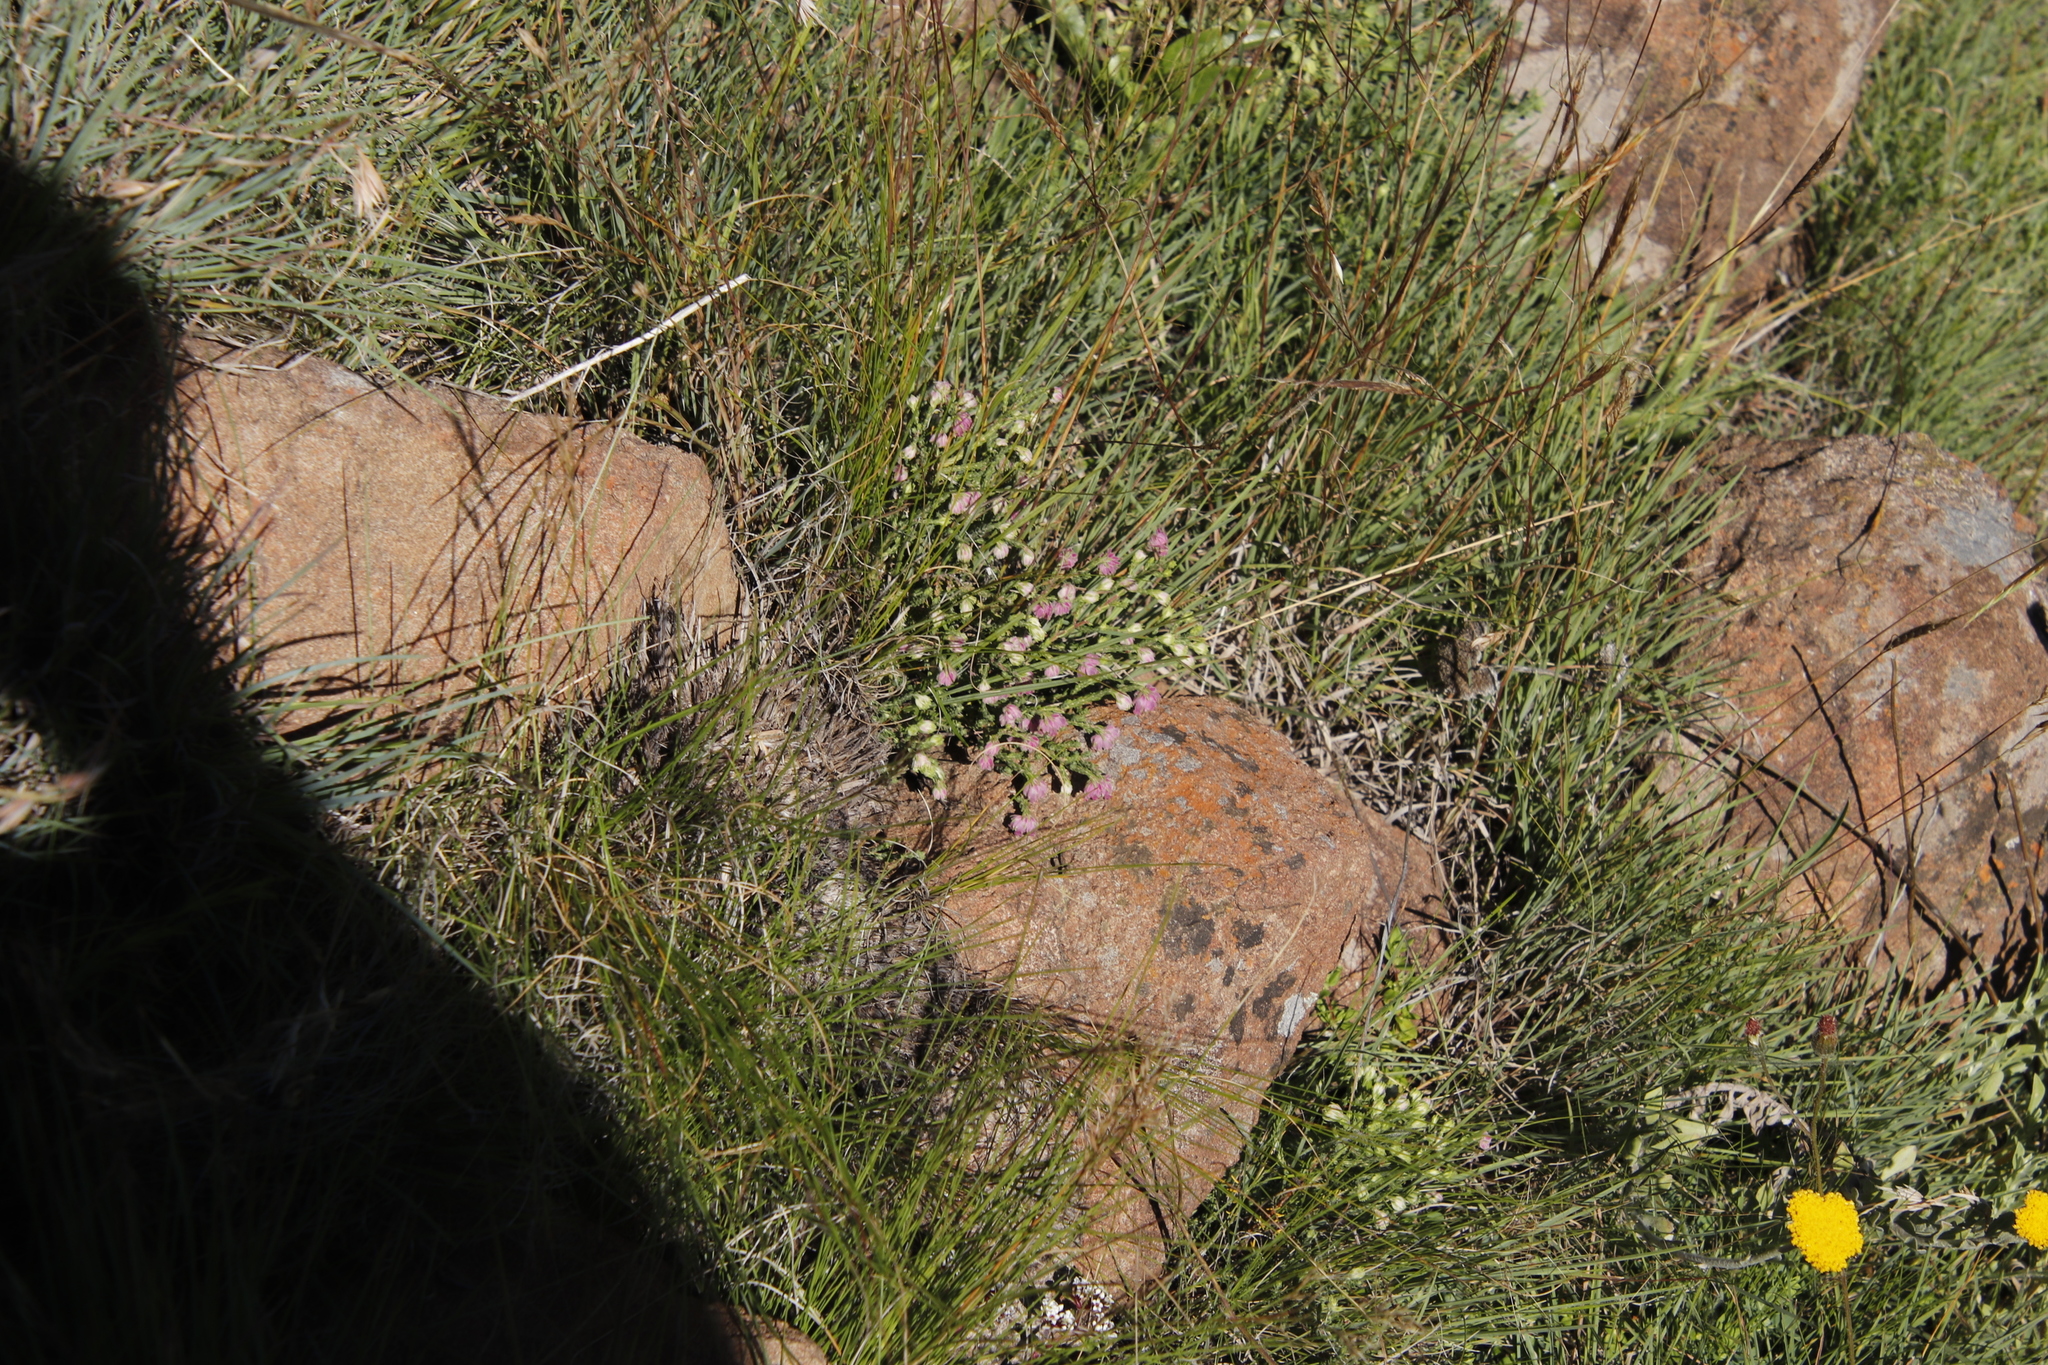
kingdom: Plantae
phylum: Tracheophyta
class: Magnoliopsida
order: Ericales
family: Ericaceae
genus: Erica
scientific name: Erica cooperi
